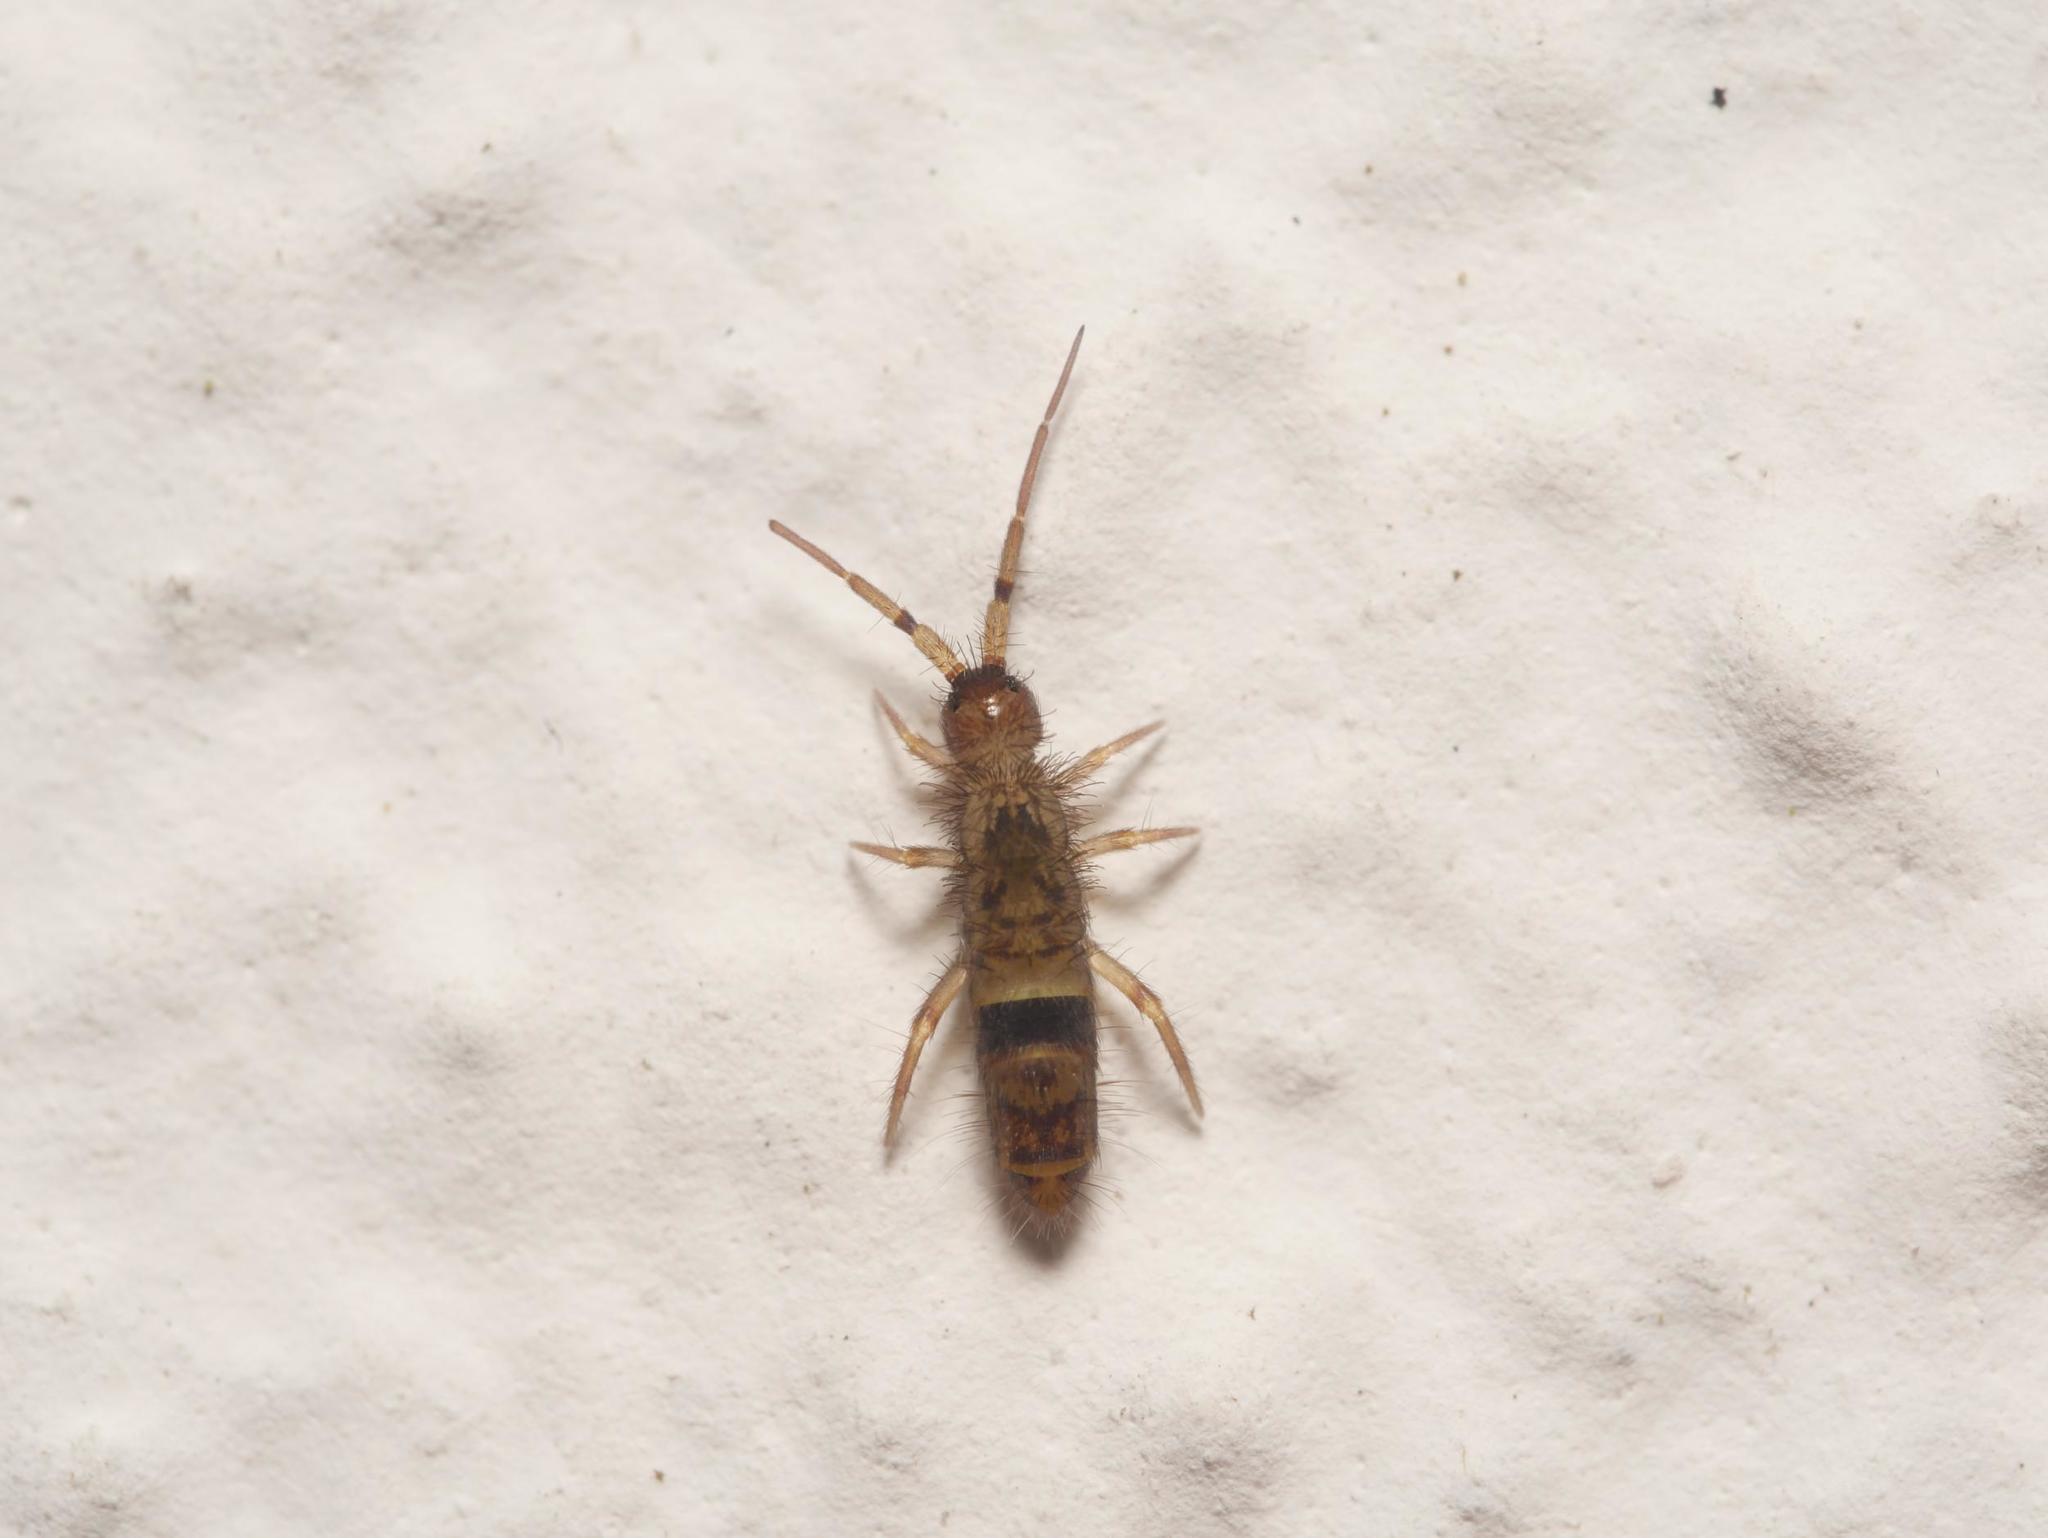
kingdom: Animalia
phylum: Arthropoda
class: Collembola
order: Entomobryomorpha
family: Orchesellidae
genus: Orchesella
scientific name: Orchesella cincta
